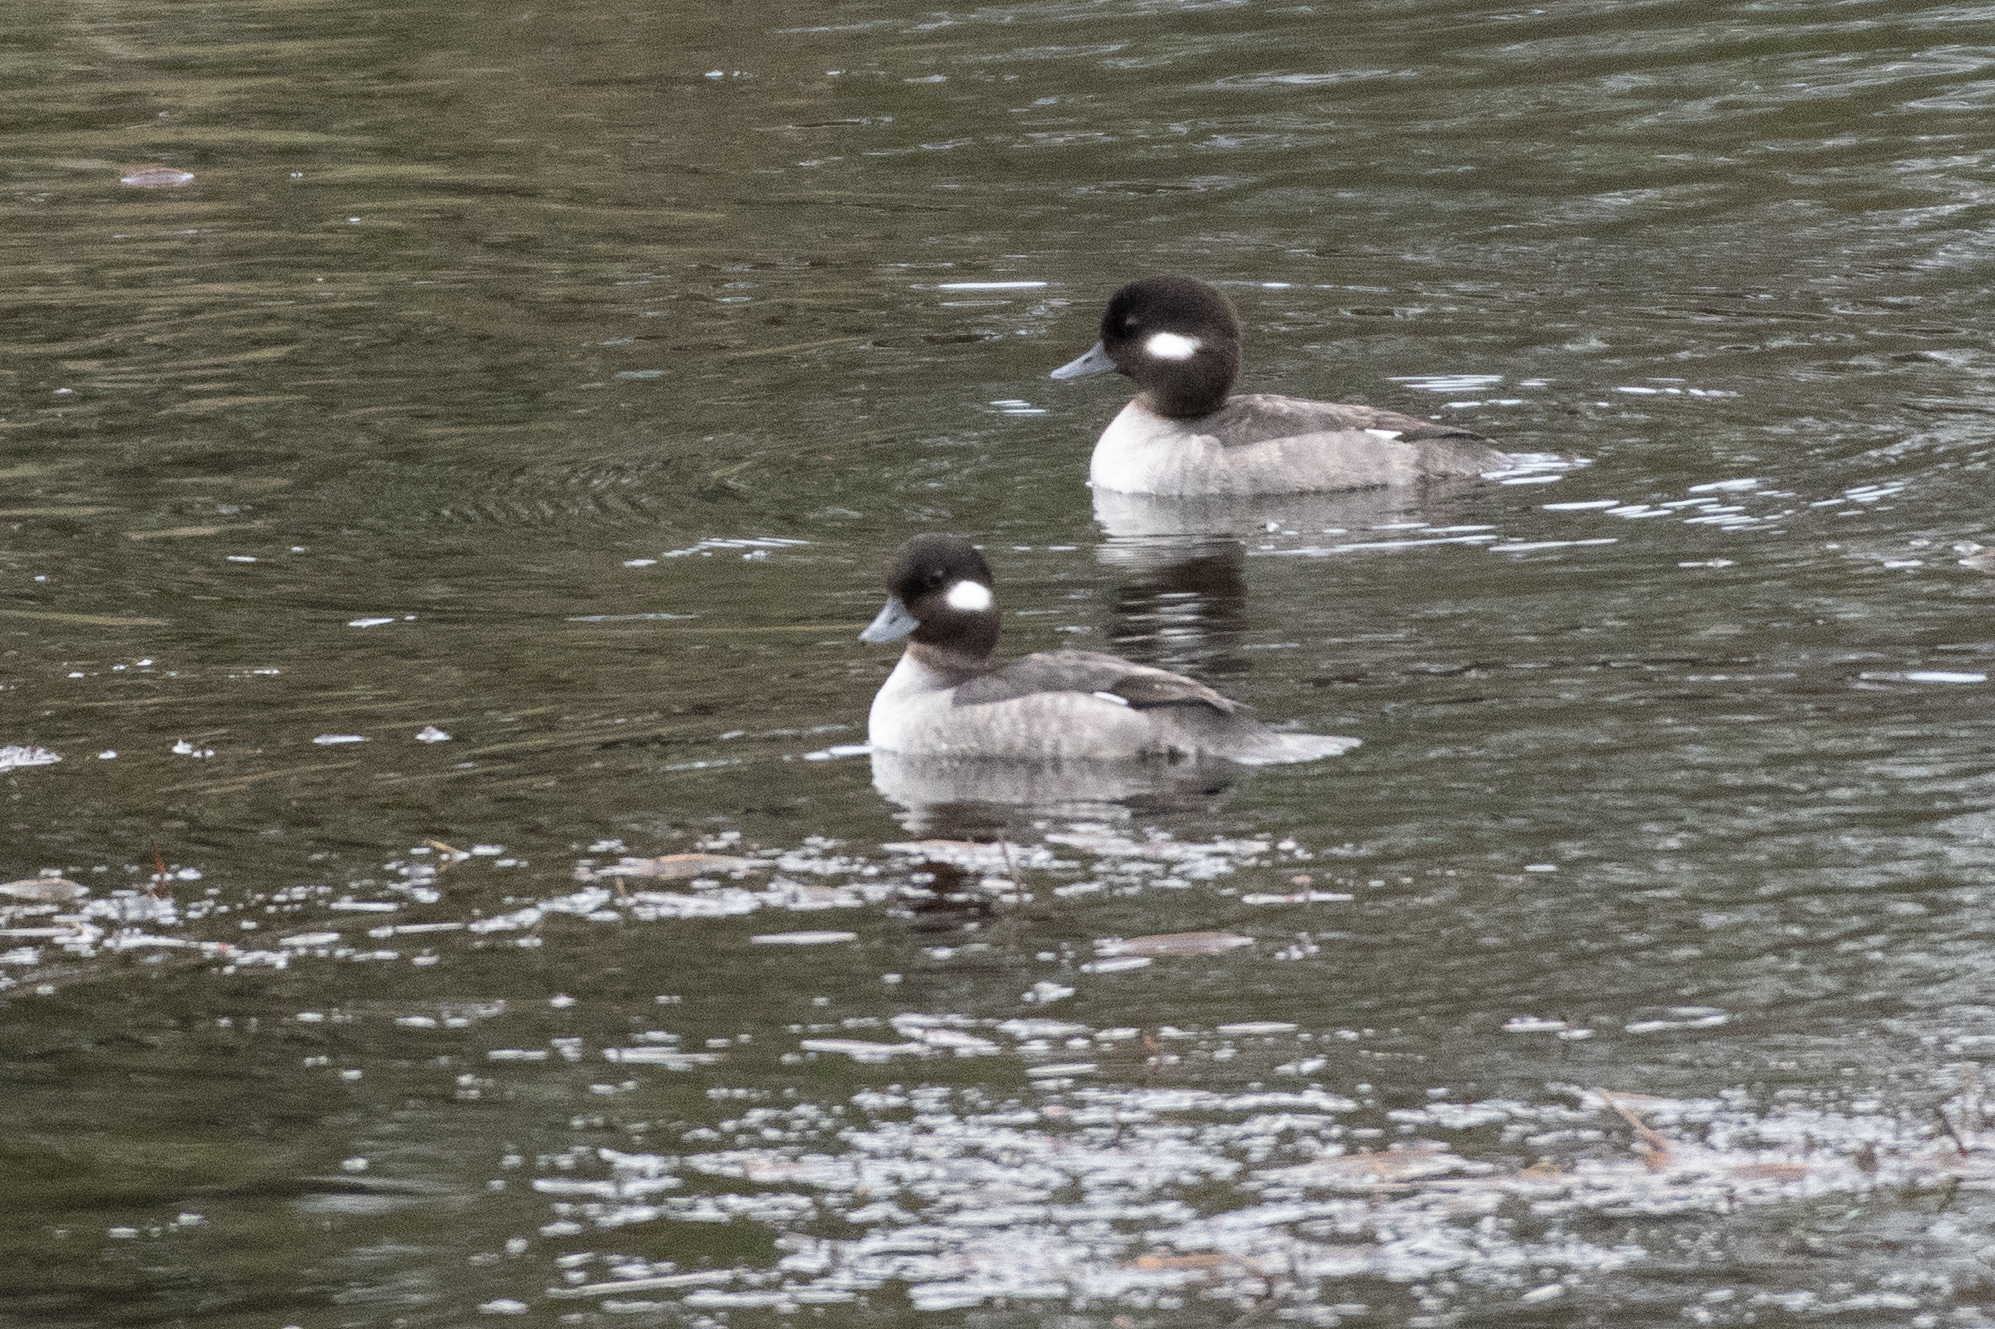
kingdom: Animalia
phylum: Chordata
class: Aves
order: Anseriformes
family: Anatidae
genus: Bucephala
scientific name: Bucephala albeola
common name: Bufflehead
